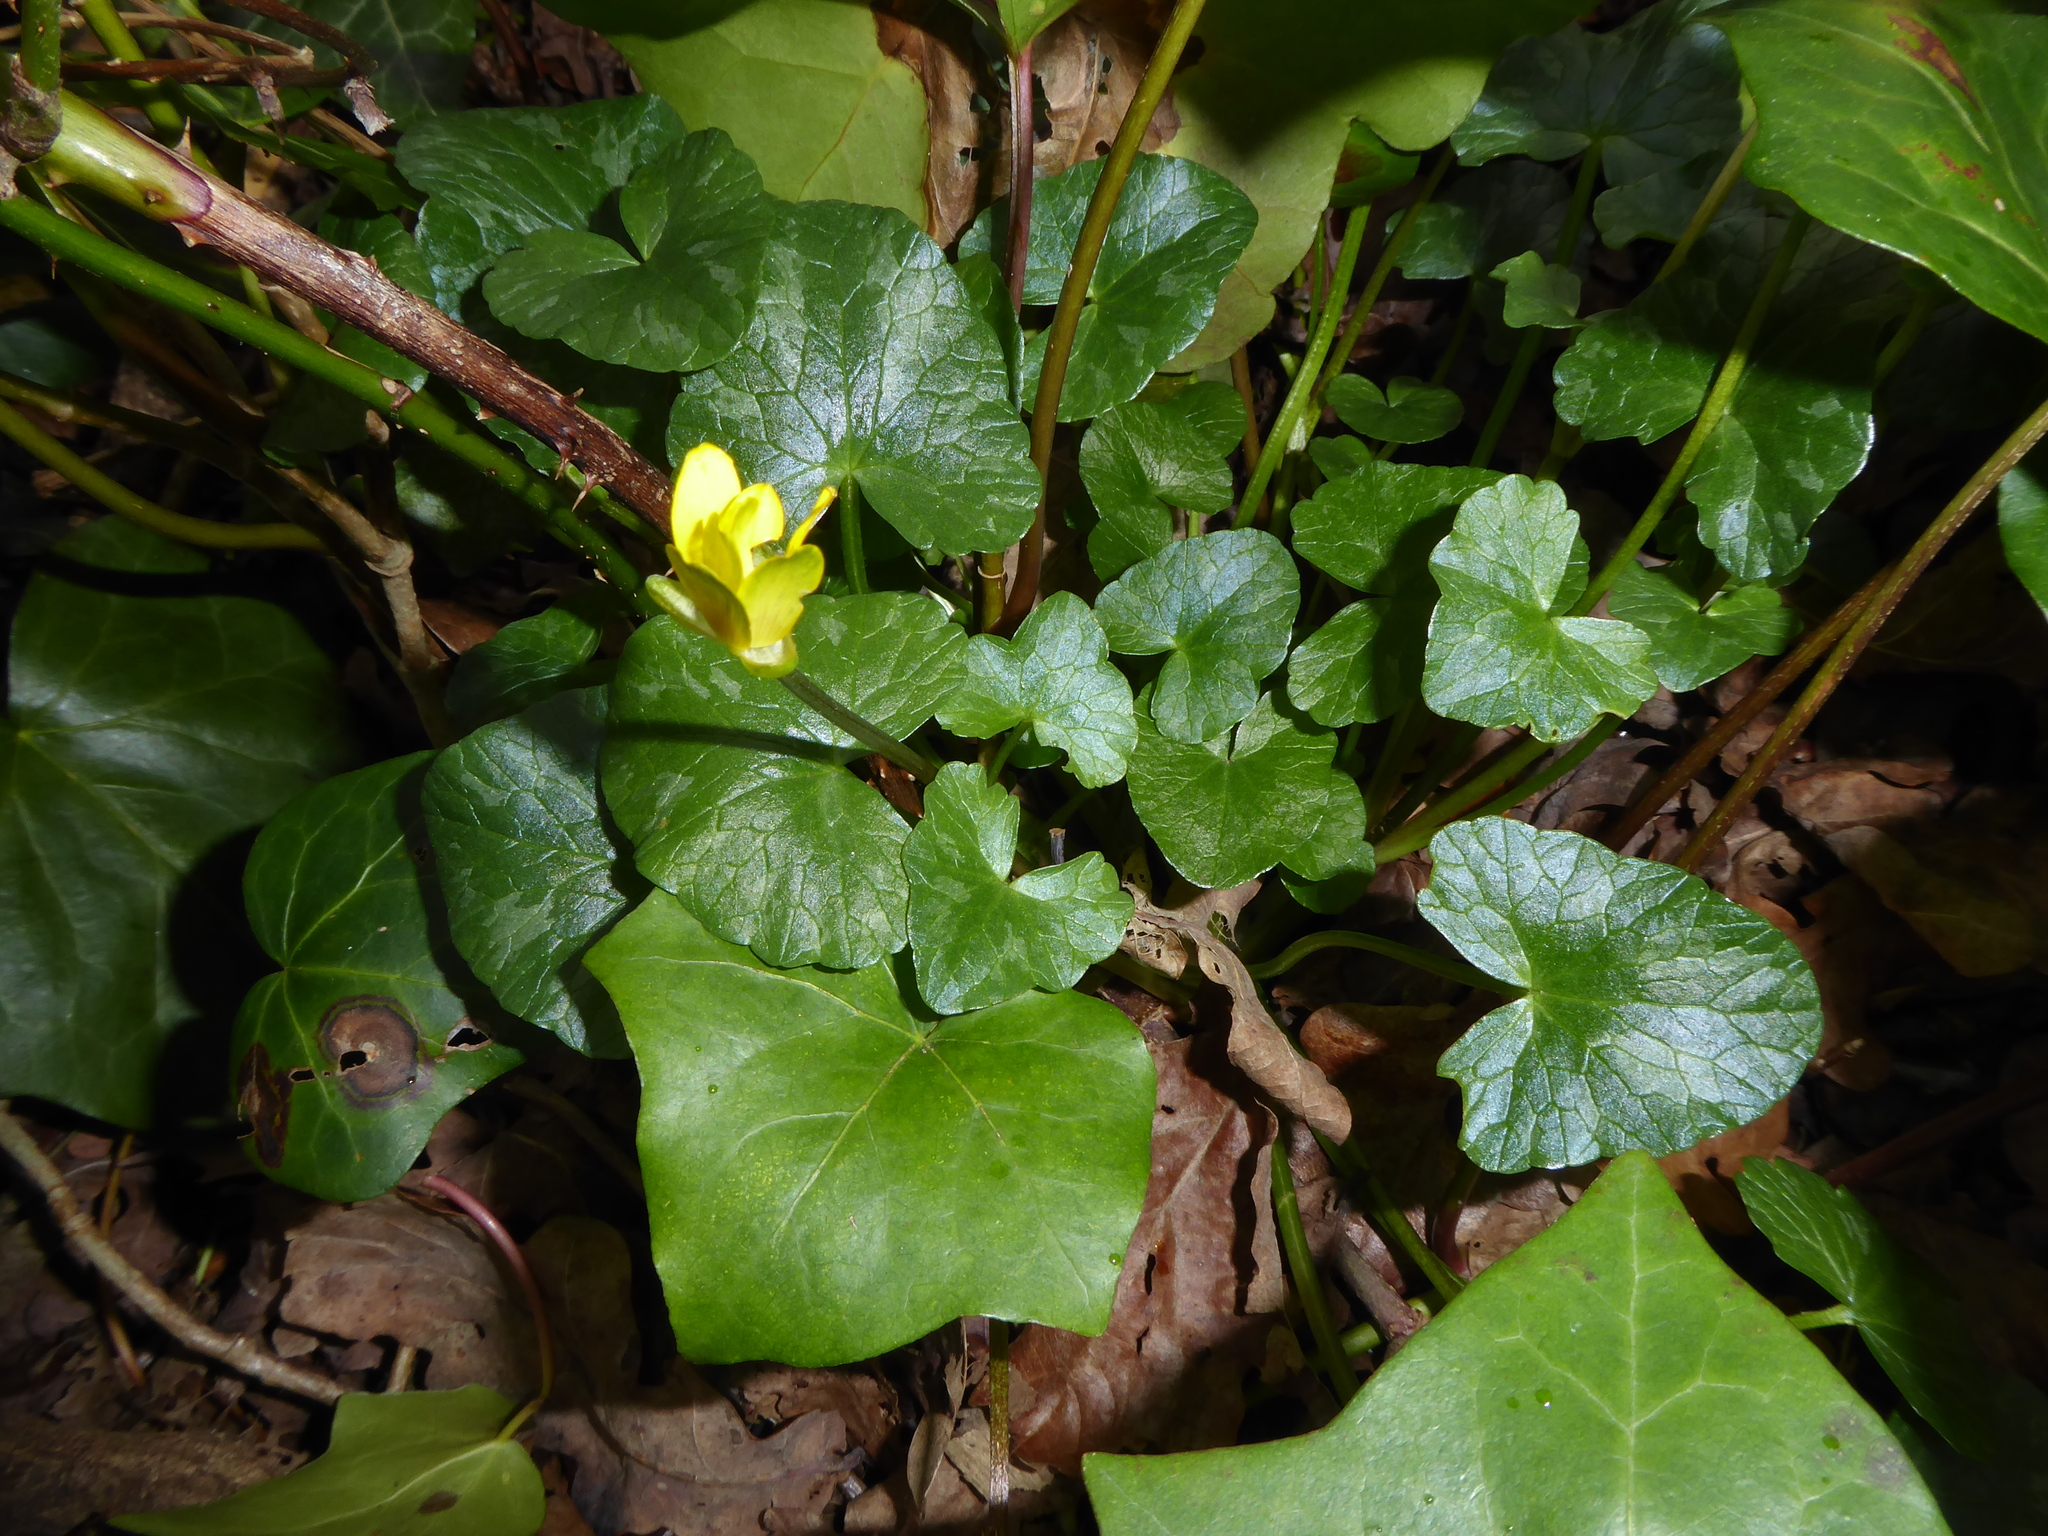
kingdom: Plantae
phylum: Tracheophyta
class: Magnoliopsida
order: Ranunculales
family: Ranunculaceae
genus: Ficaria
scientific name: Ficaria verna
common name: Lesser celandine
